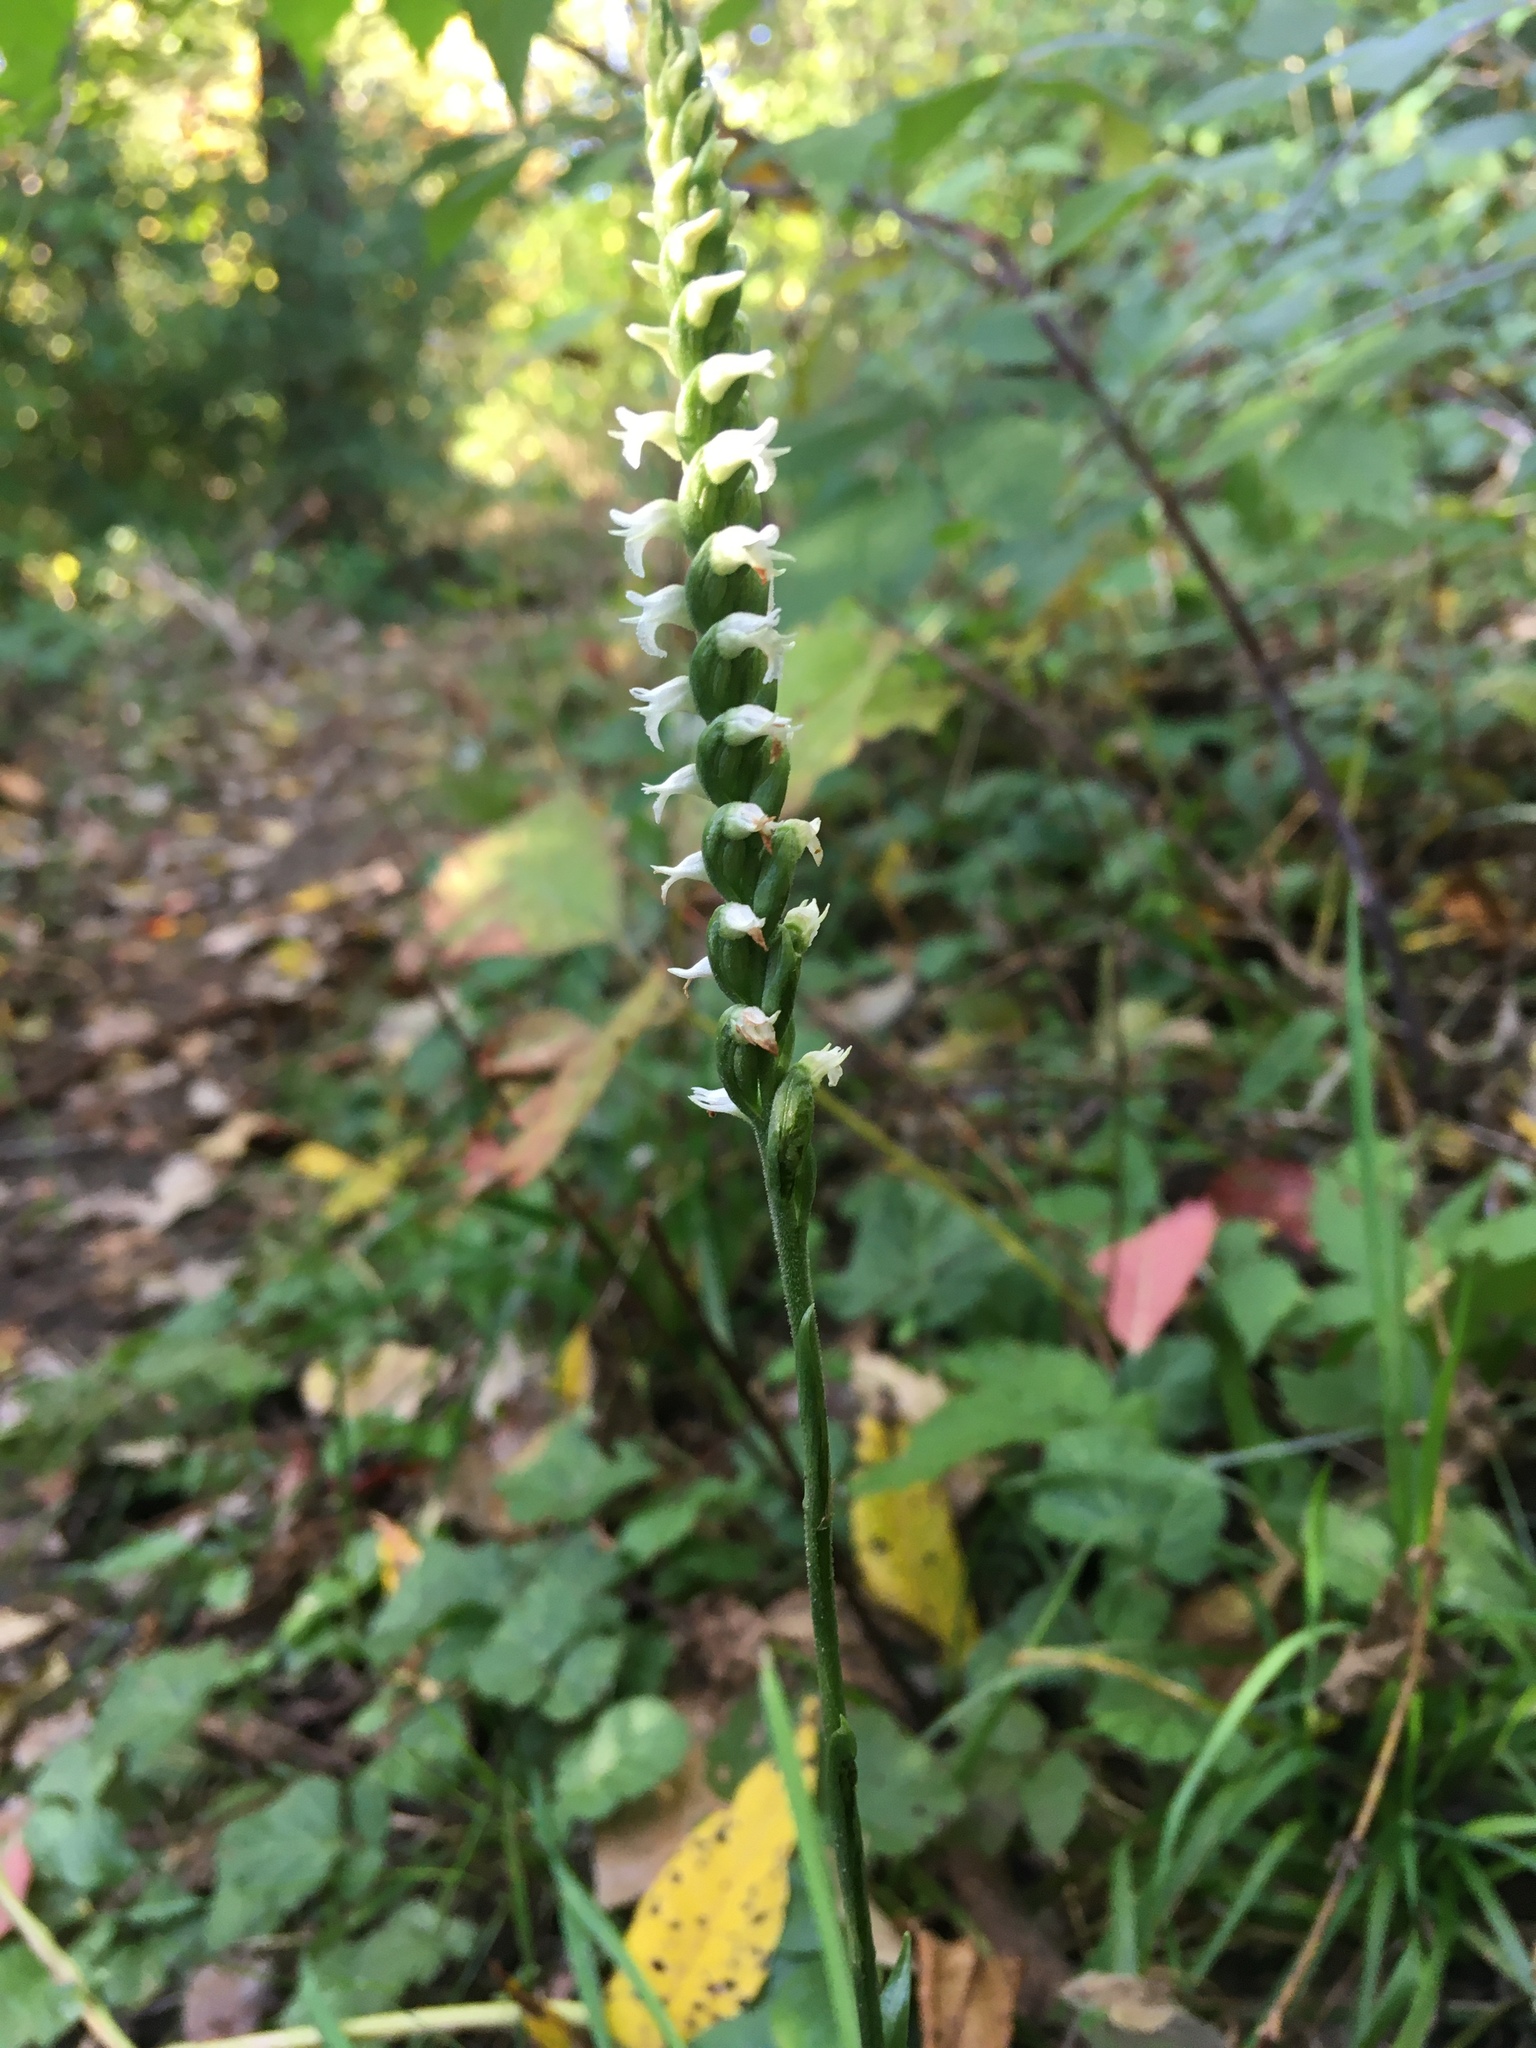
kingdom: Plantae
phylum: Tracheophyta
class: Liliopsida
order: Asparagales
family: Orchidaceae
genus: Spiranthes
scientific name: Spiranthes ovalis
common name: October ladies'-tresses
